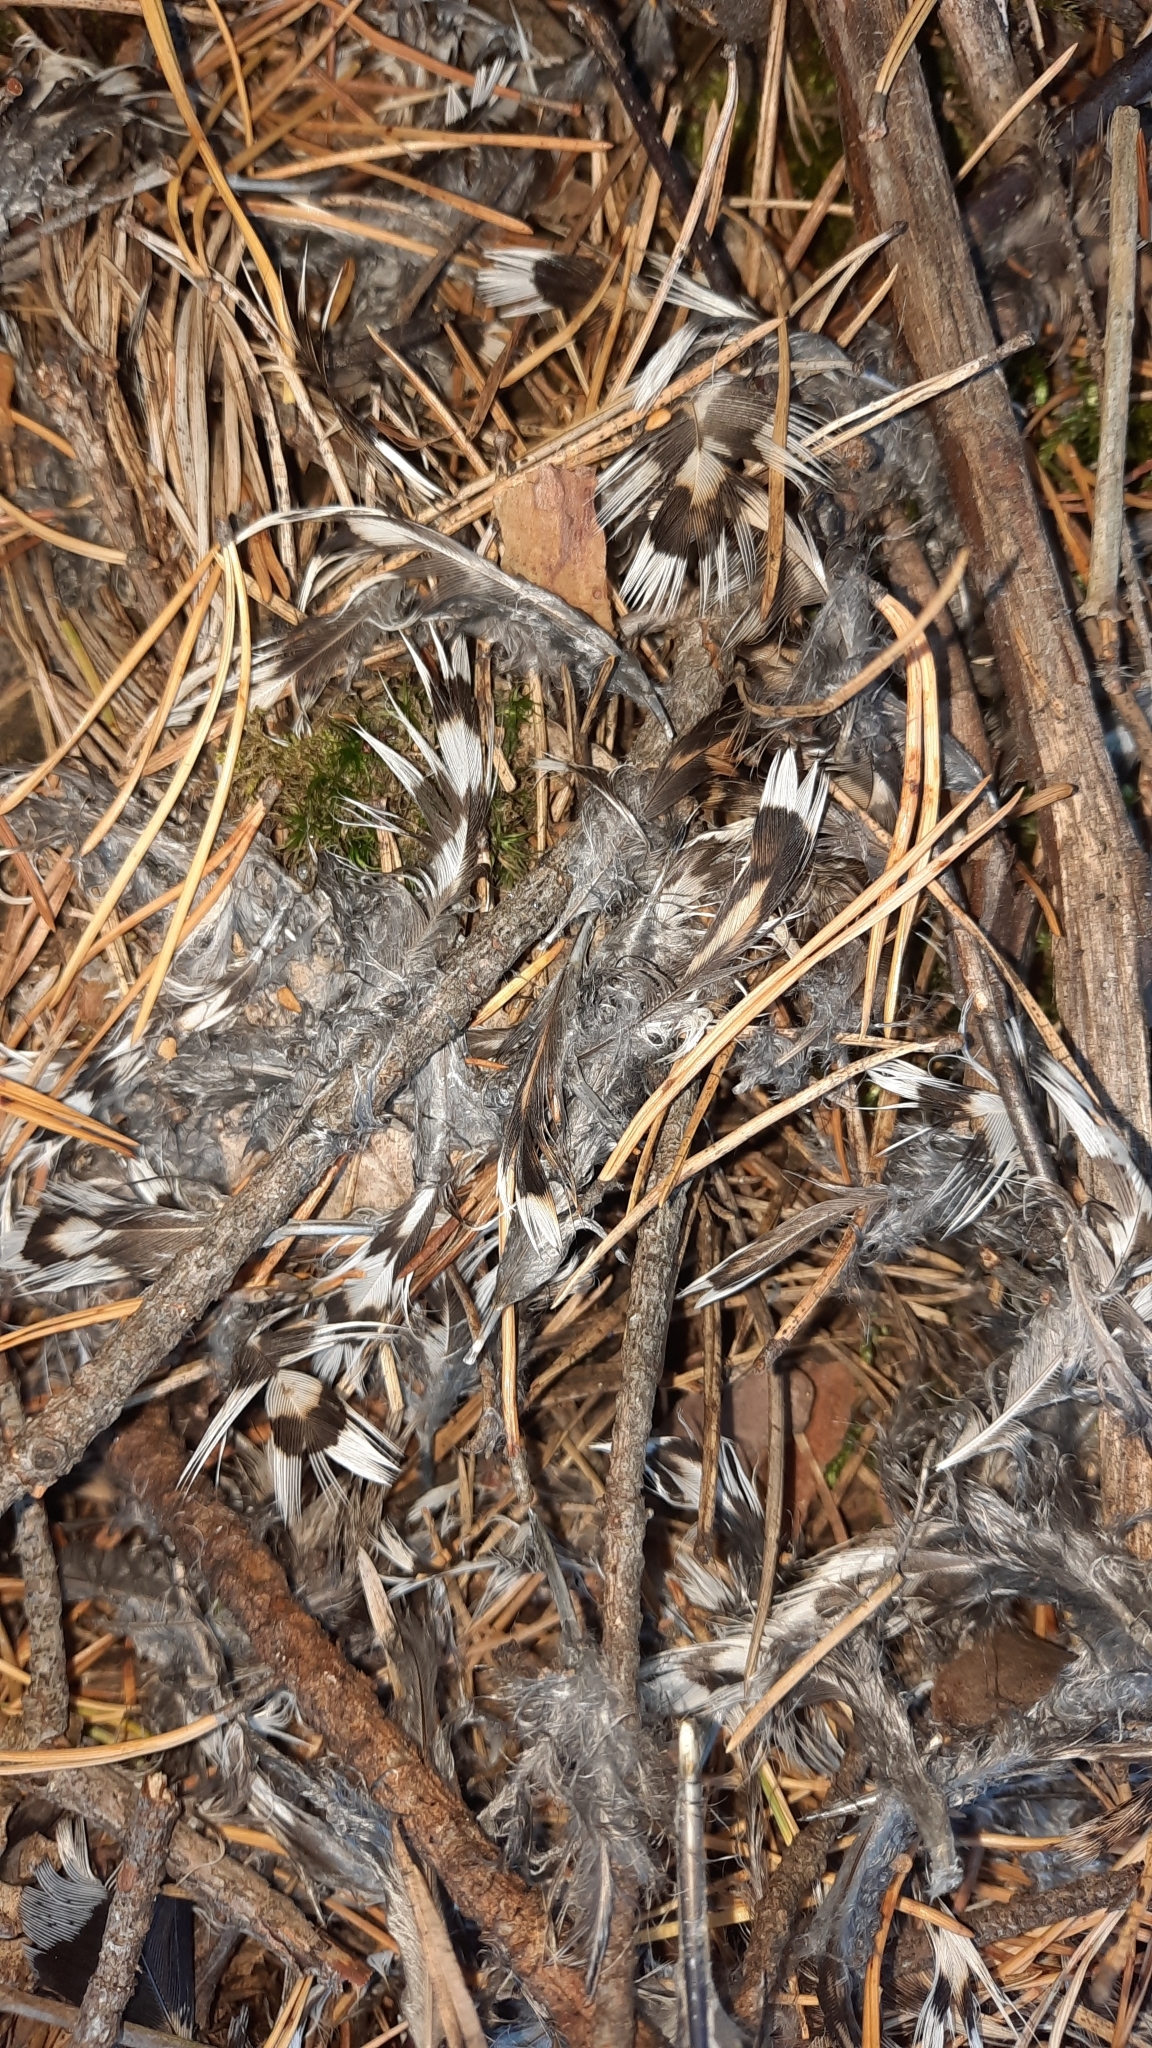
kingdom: Animalia
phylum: Chordata
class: Aves
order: Galliformes
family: Phasianidae
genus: Tetrastes
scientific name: Tetrastes bonasia
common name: Hazel grouse
